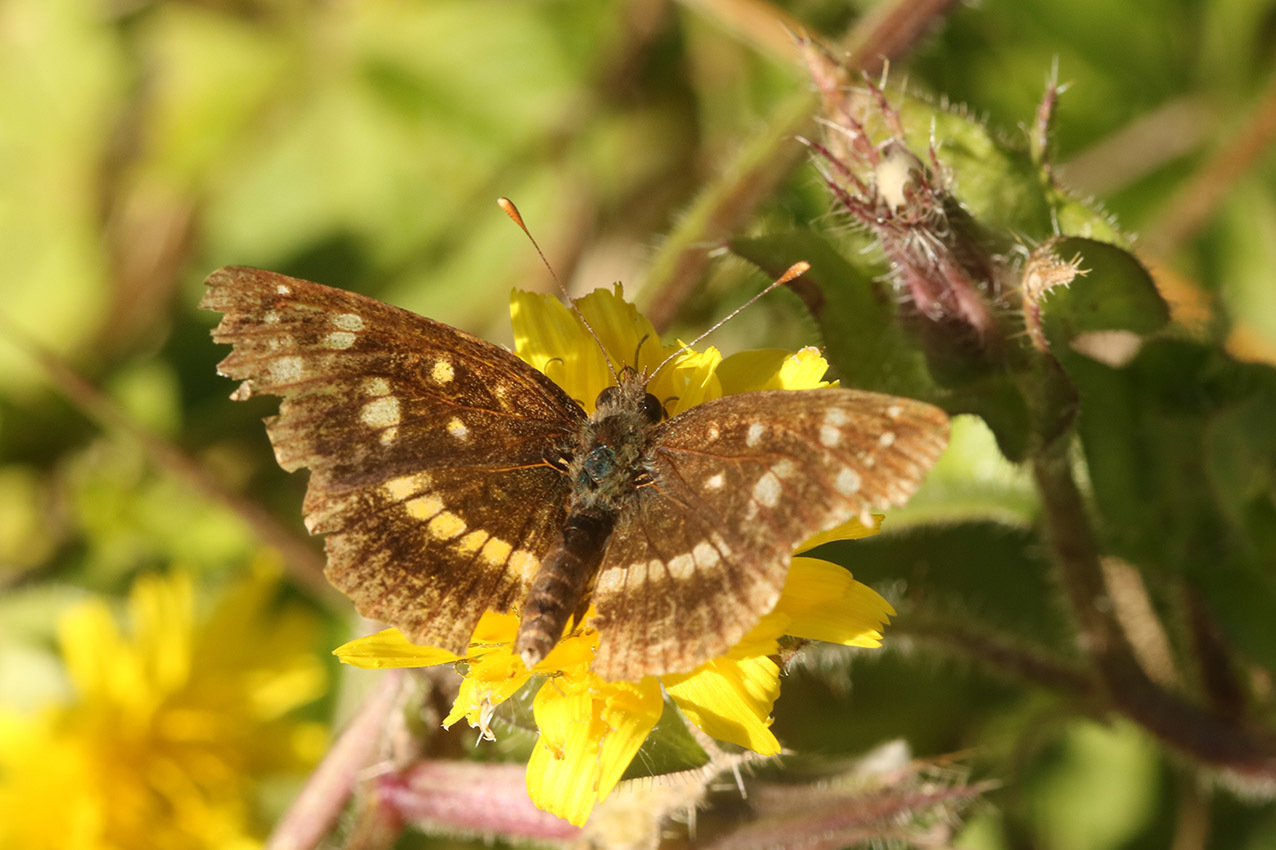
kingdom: Animalia
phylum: Arthropoda
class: Insecta
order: Lepidoptera
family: Nymphalidae
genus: Ortilia
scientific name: Ortilia ithra
